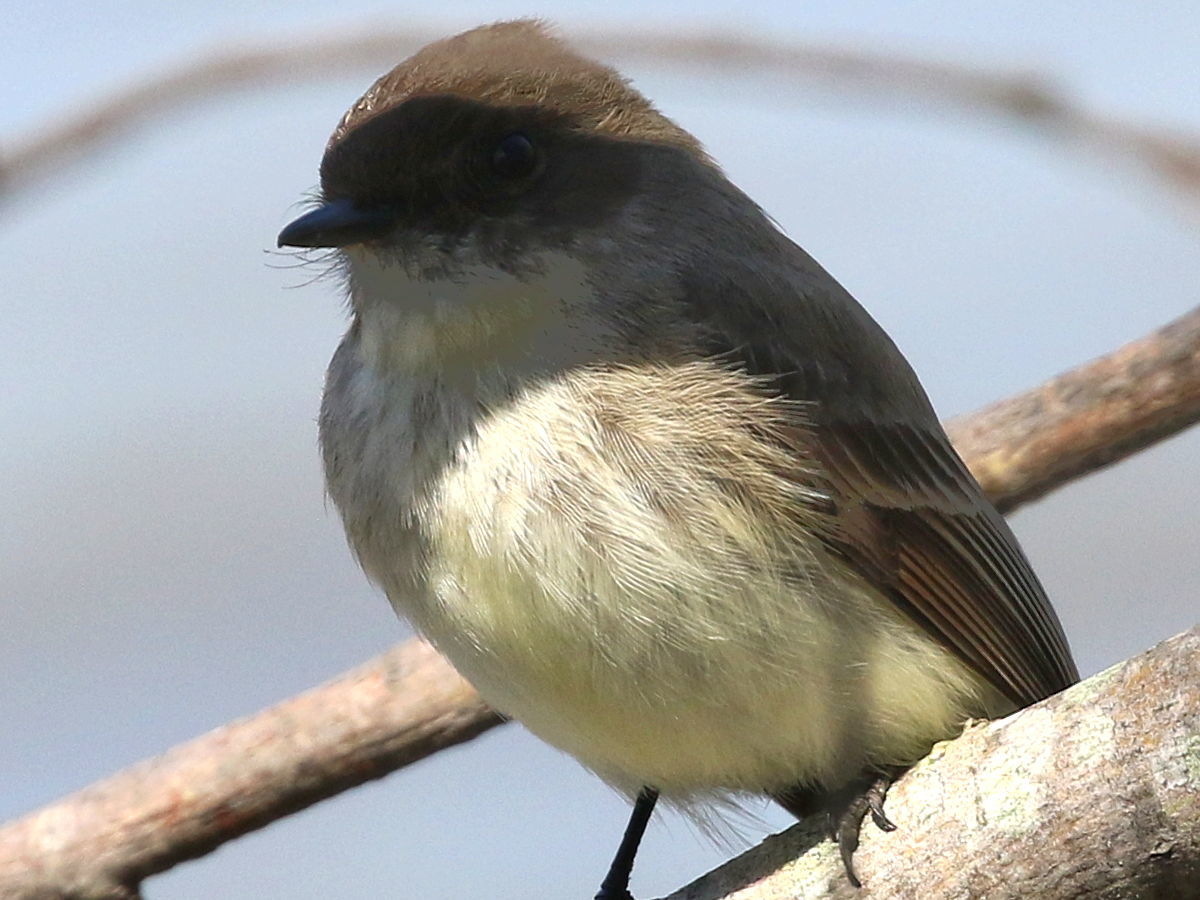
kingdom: Animalia
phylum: Chordata
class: Aves
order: Passeriformes
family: Tyrannidae
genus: Sayornis
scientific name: Sayornis phoebe
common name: Eastern phoebe
